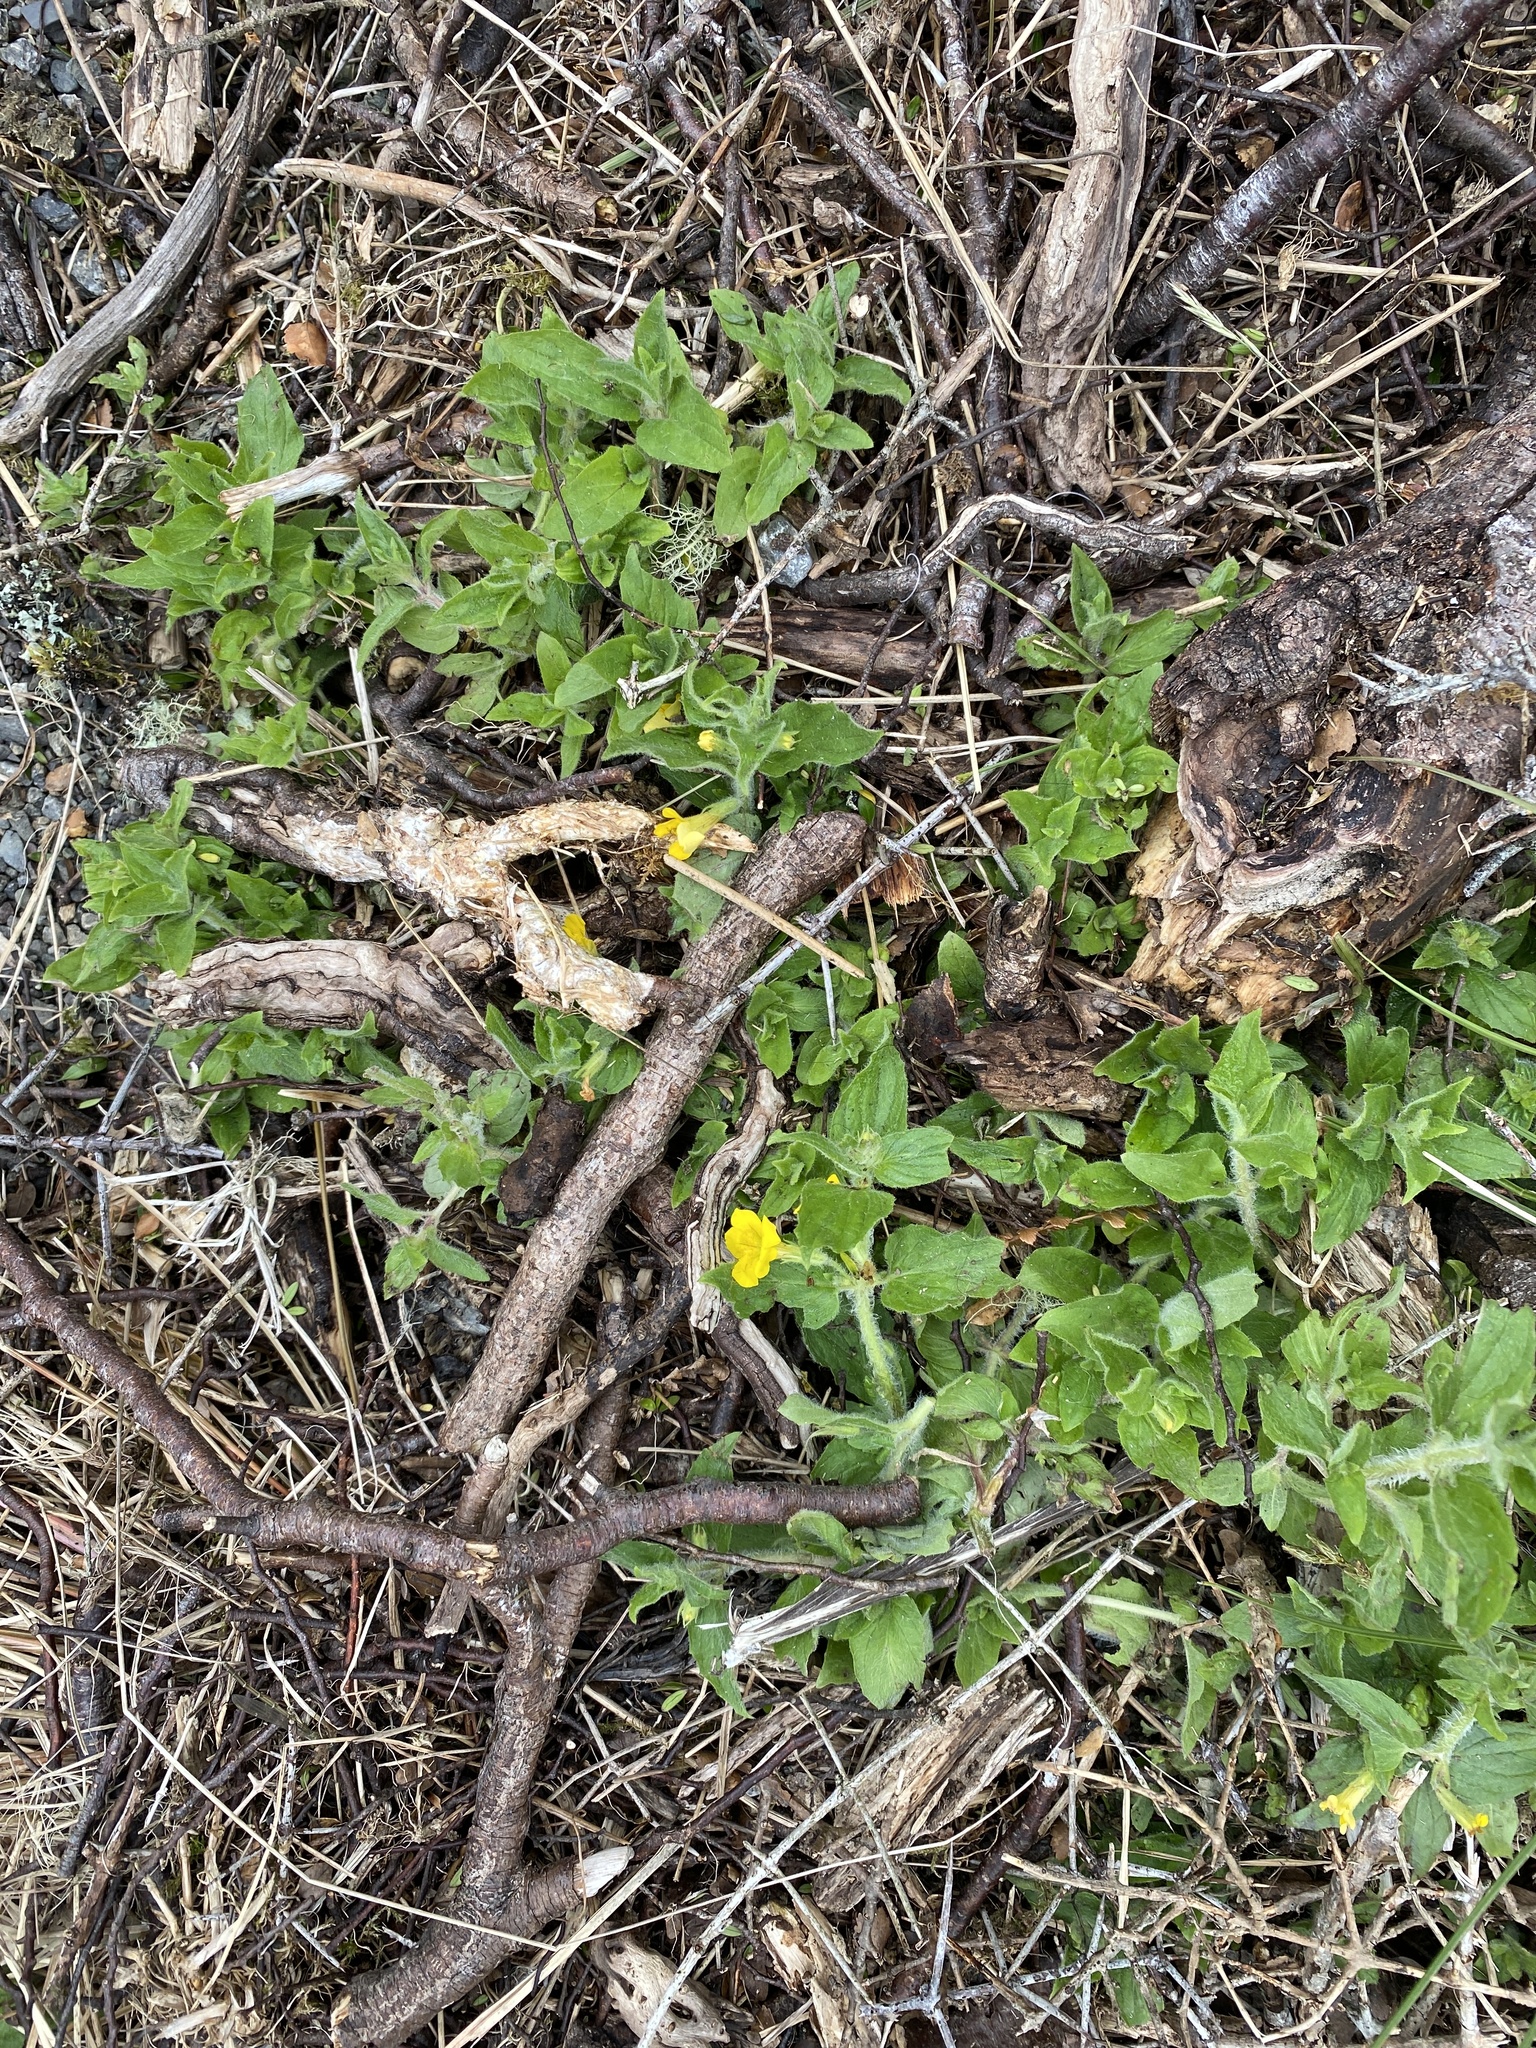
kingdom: Plantae
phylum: Tracheophyta
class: Magnoliopsida
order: Lamiales
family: Phrymaceae
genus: Erythranthe
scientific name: Erythranthe moschata
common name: Muskflower
